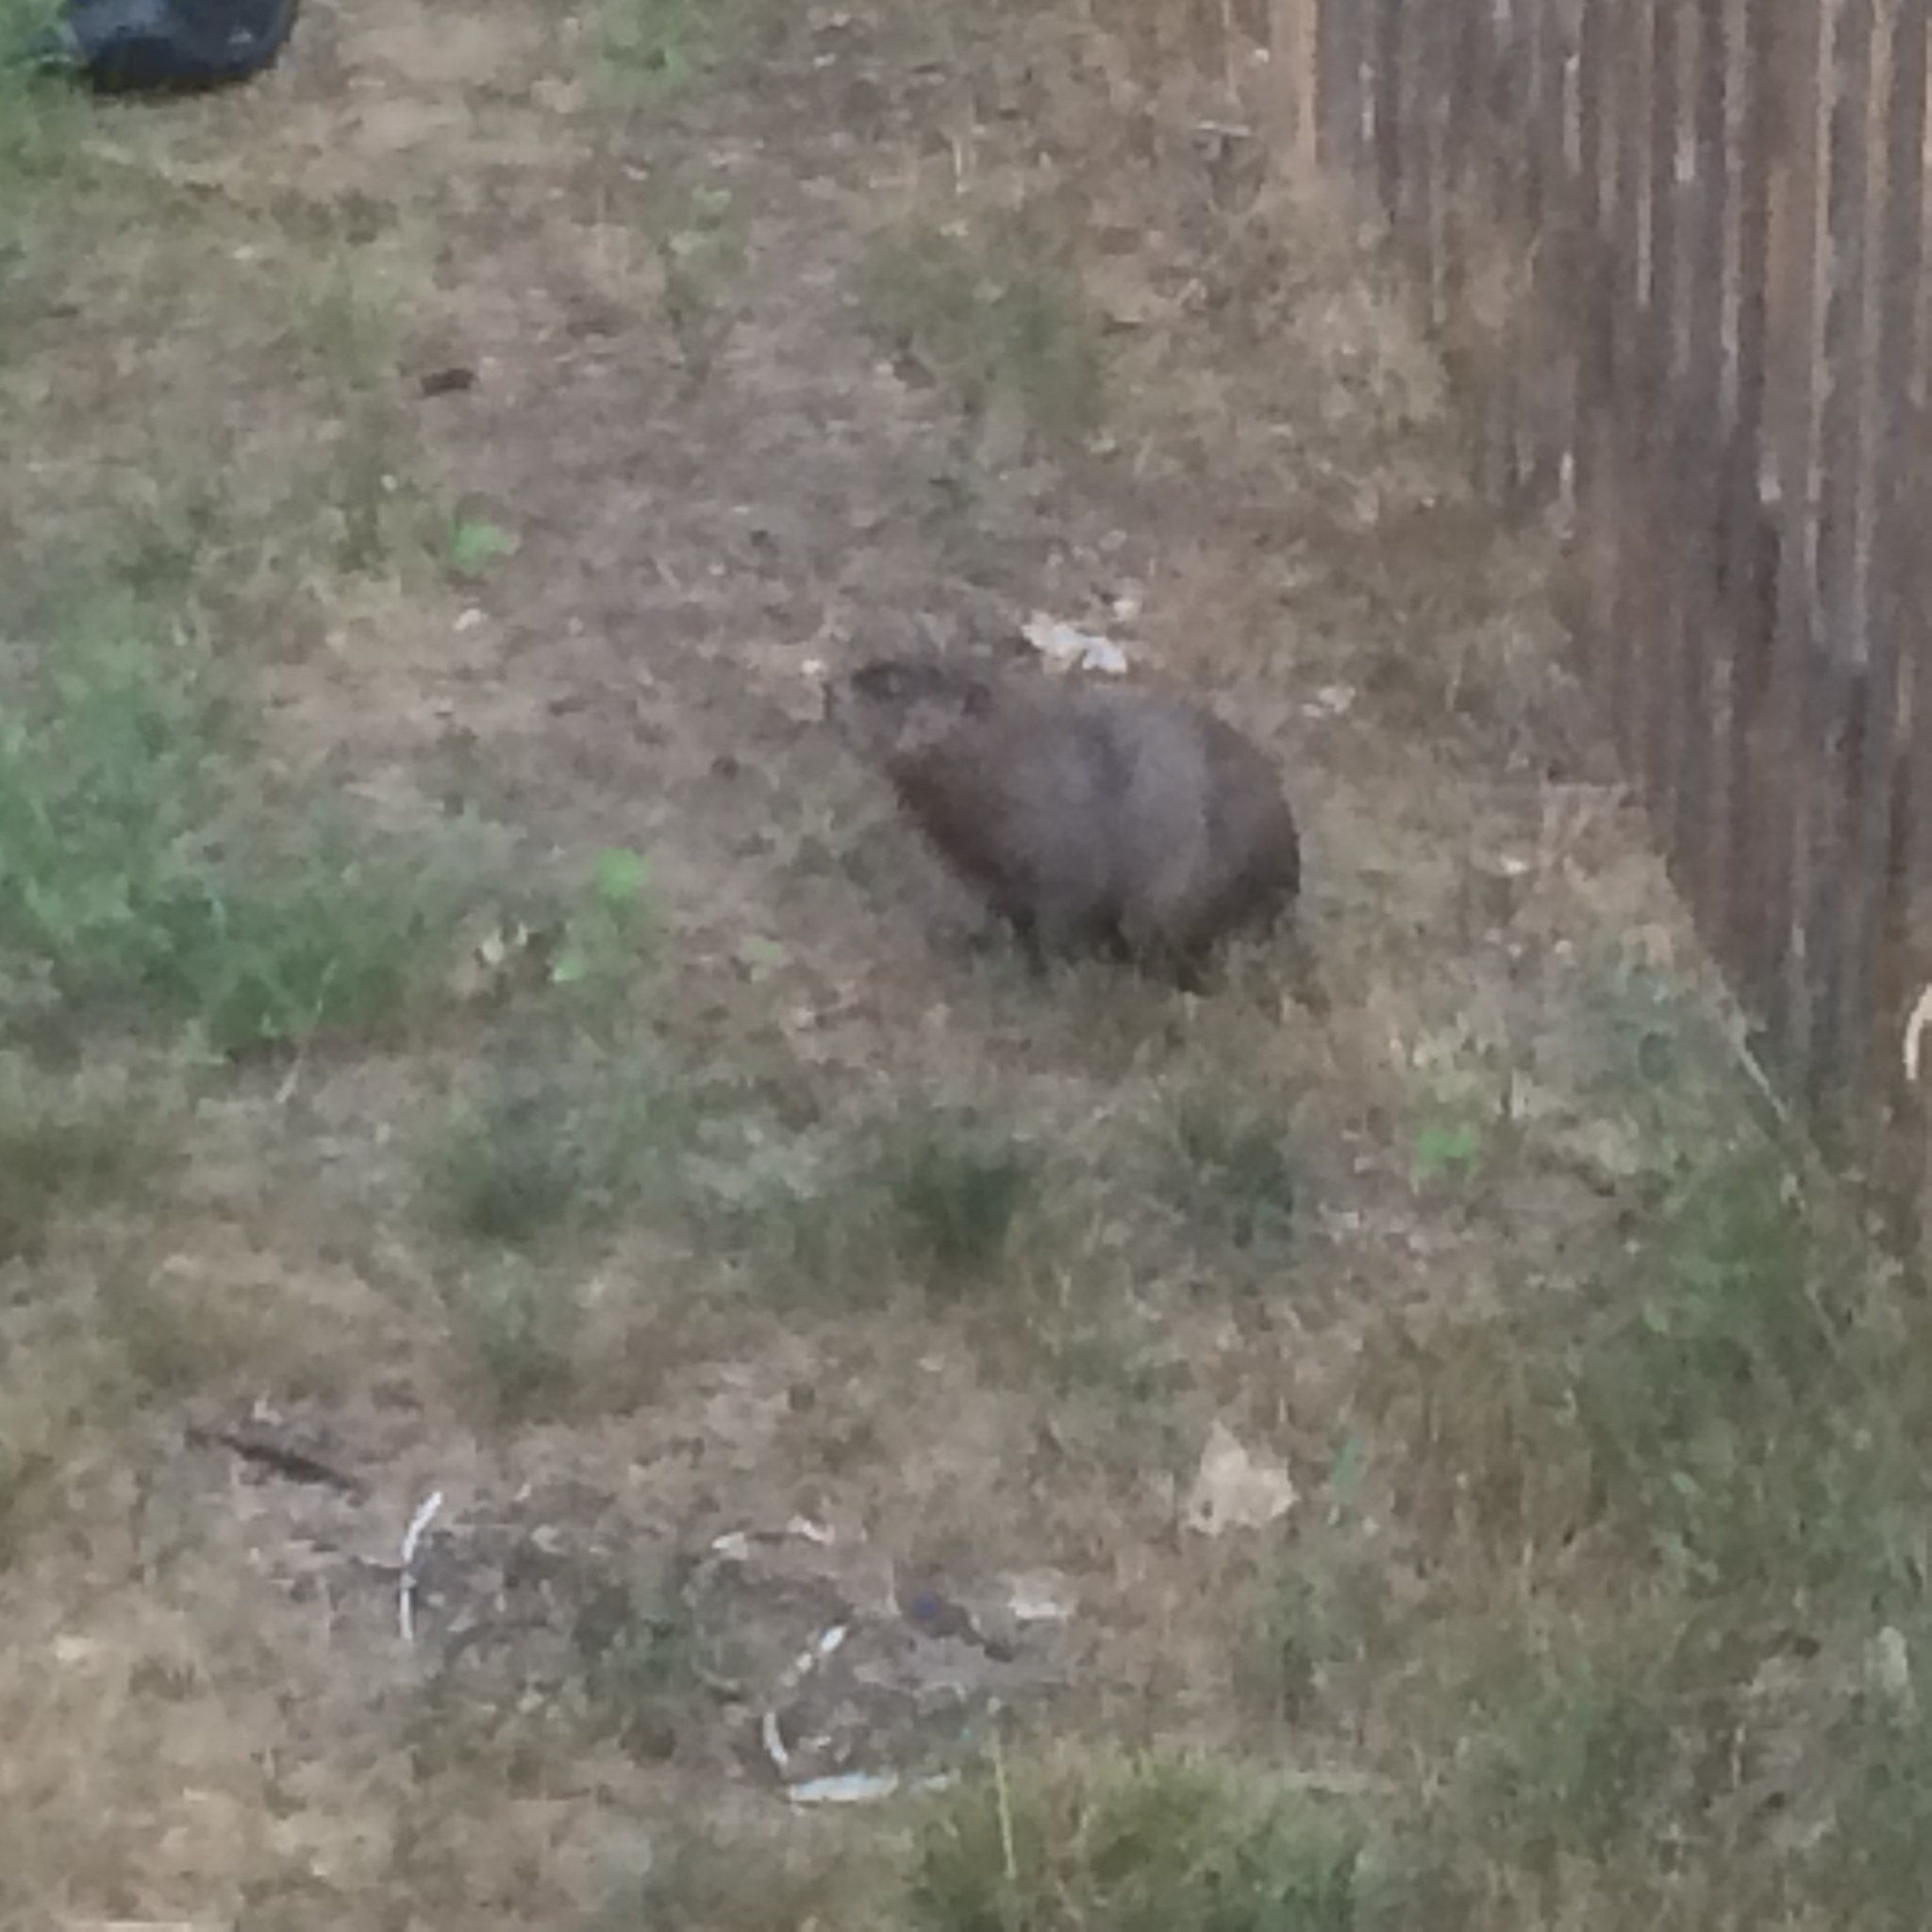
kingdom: Animalia
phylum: Chordata
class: Mammalia
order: Rodentia
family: Sciuridae
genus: Marmota
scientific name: Marmota monax
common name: Groundhog
